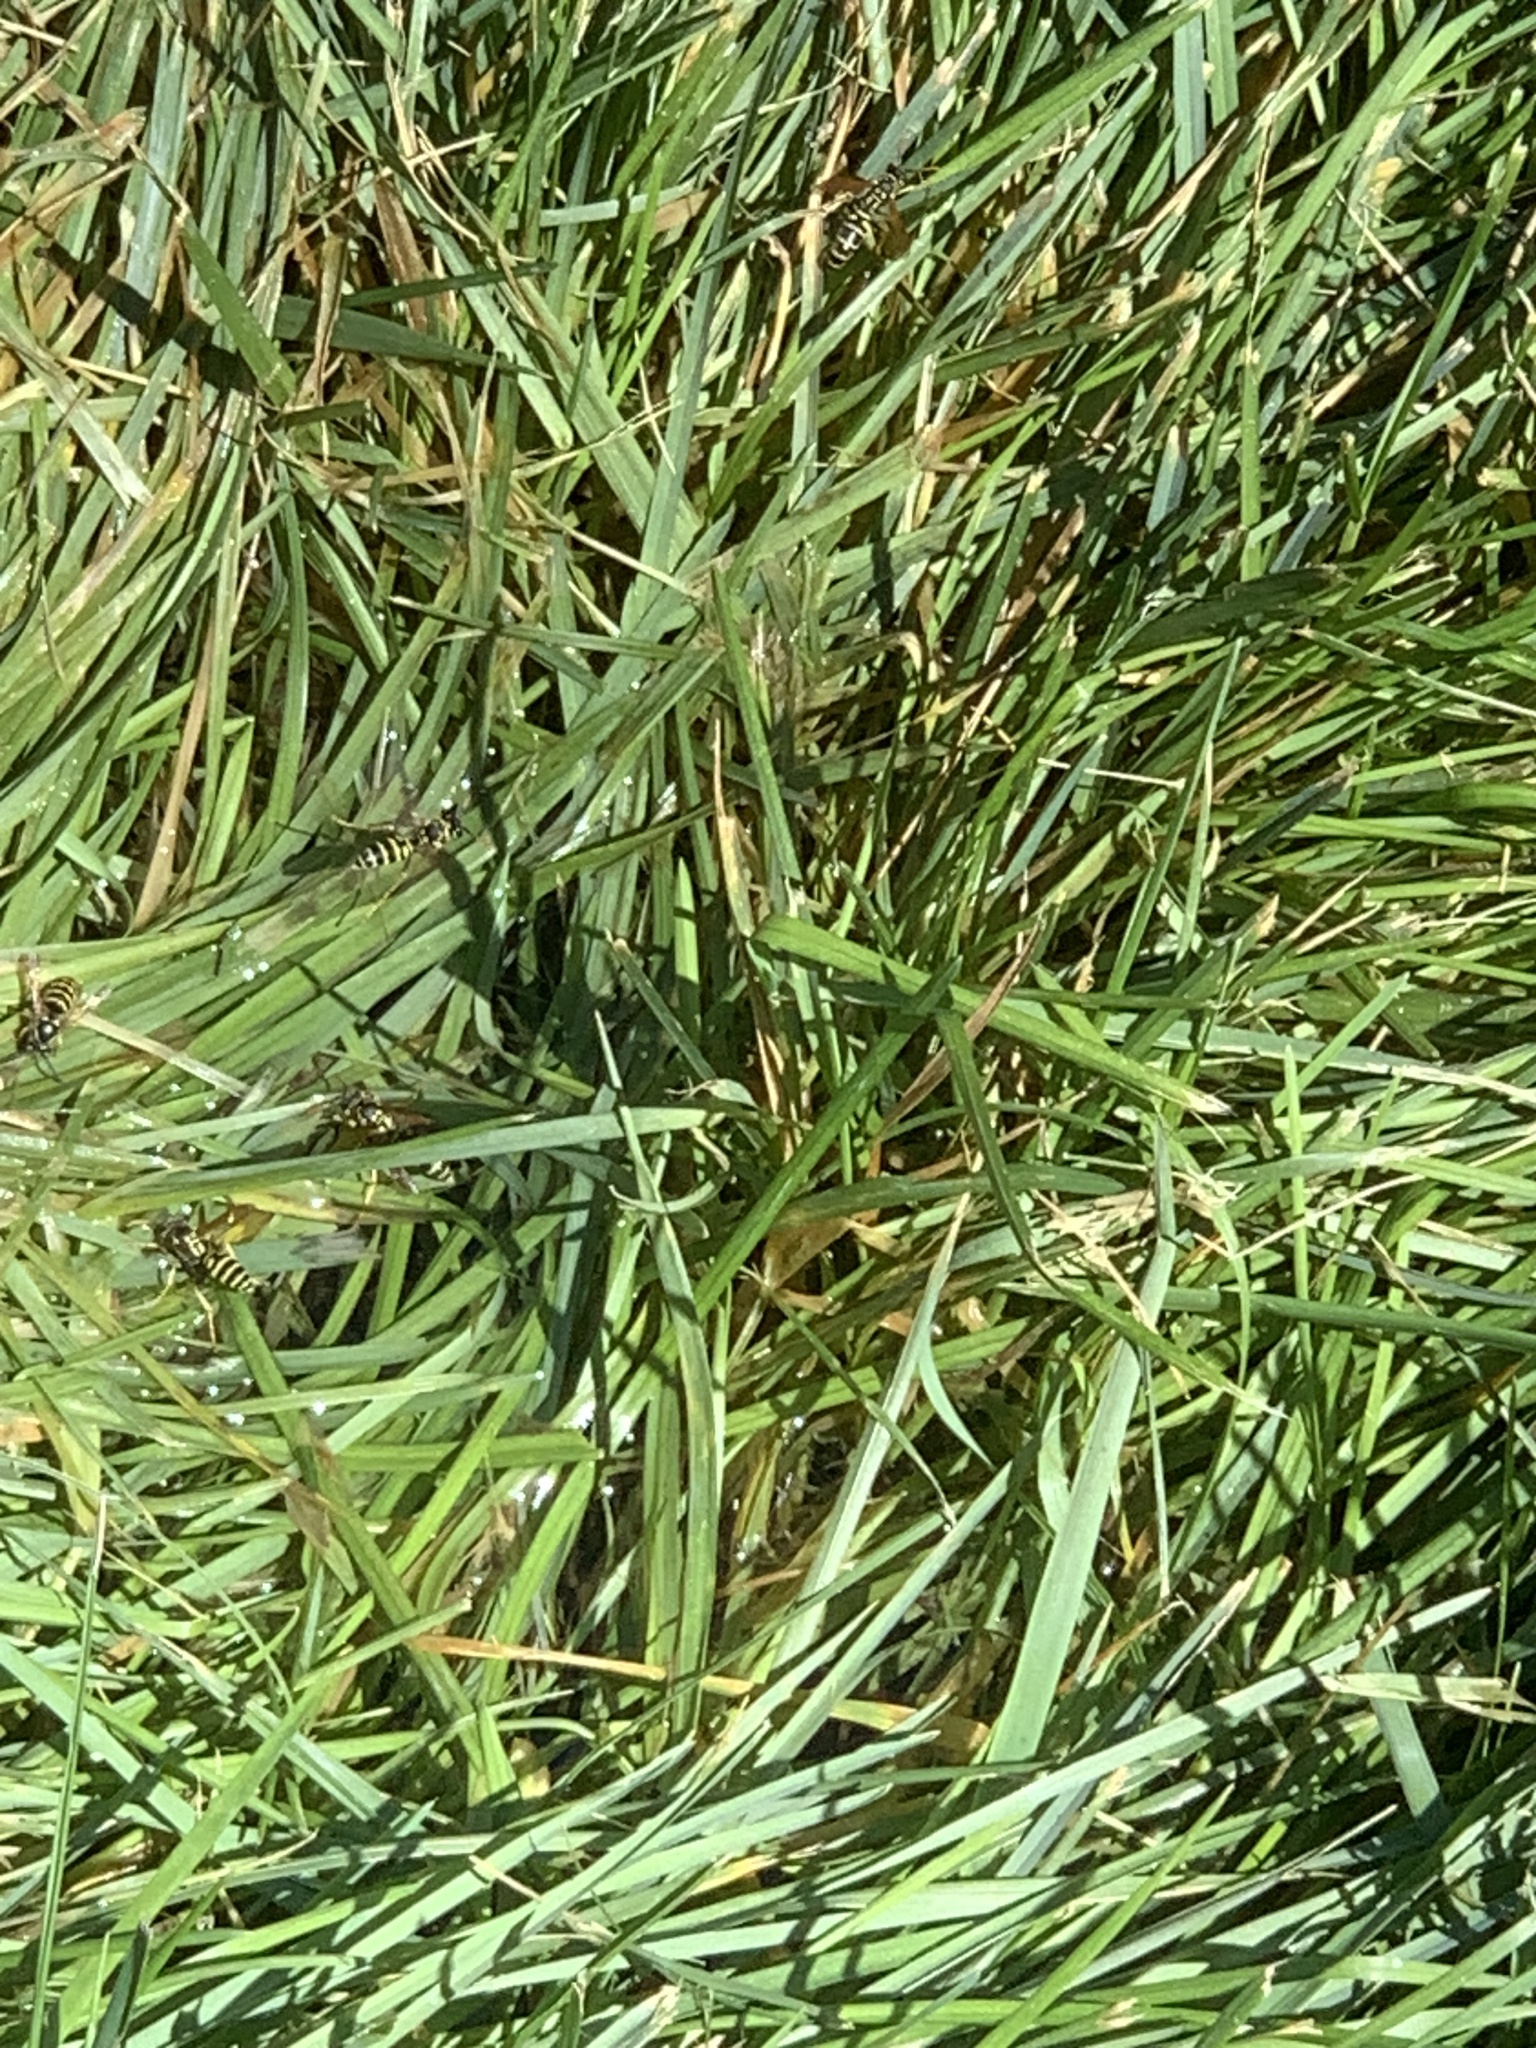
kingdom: Animalia
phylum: Arthropoda
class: Insecta
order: Hymenoptera
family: Eumenidae
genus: Polistes
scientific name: Polistes dominula
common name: Paper wasp
